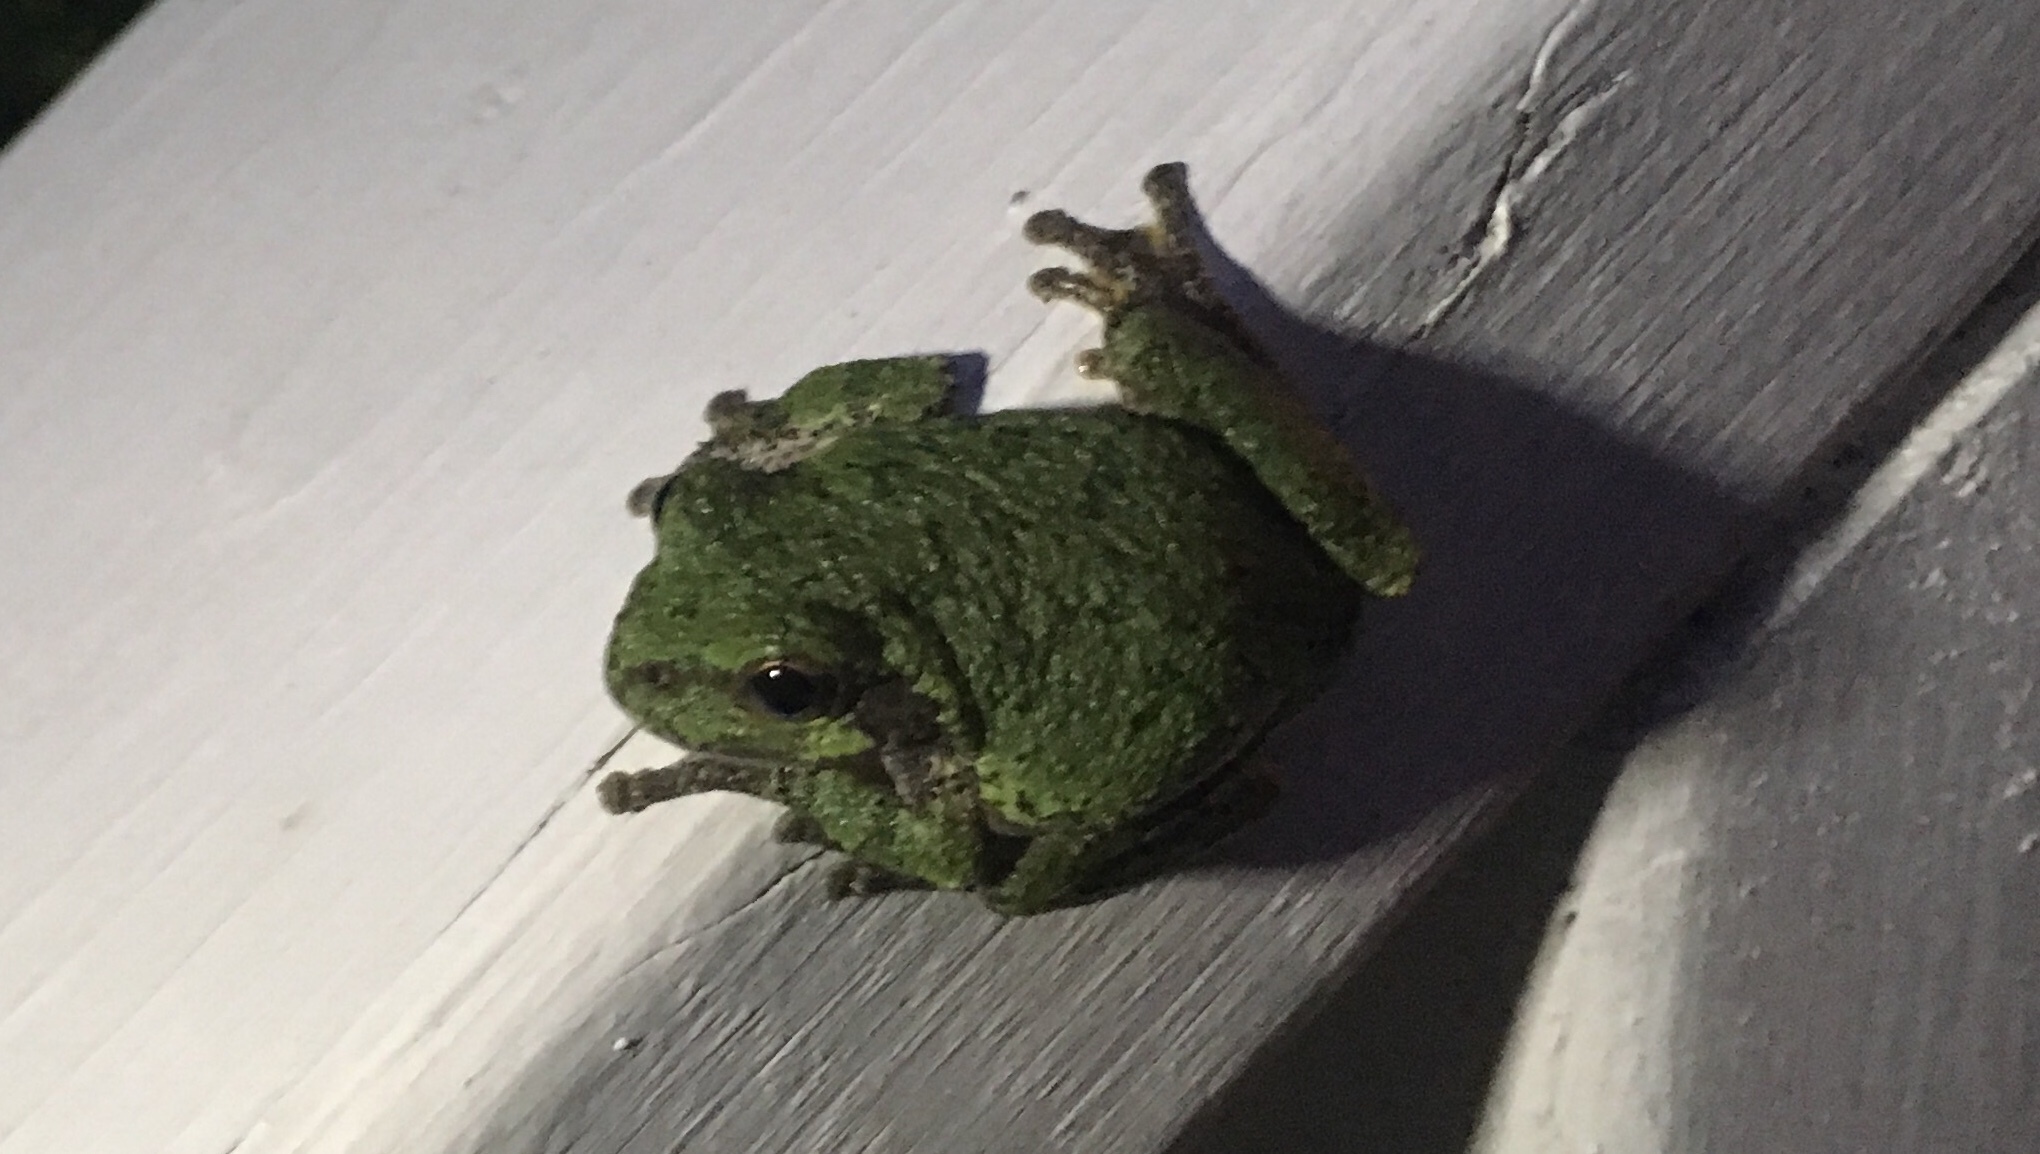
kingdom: Animalia
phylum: Chordata
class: Amphibia
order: Anura
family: Hylidae
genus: Hyla
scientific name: Hyla
